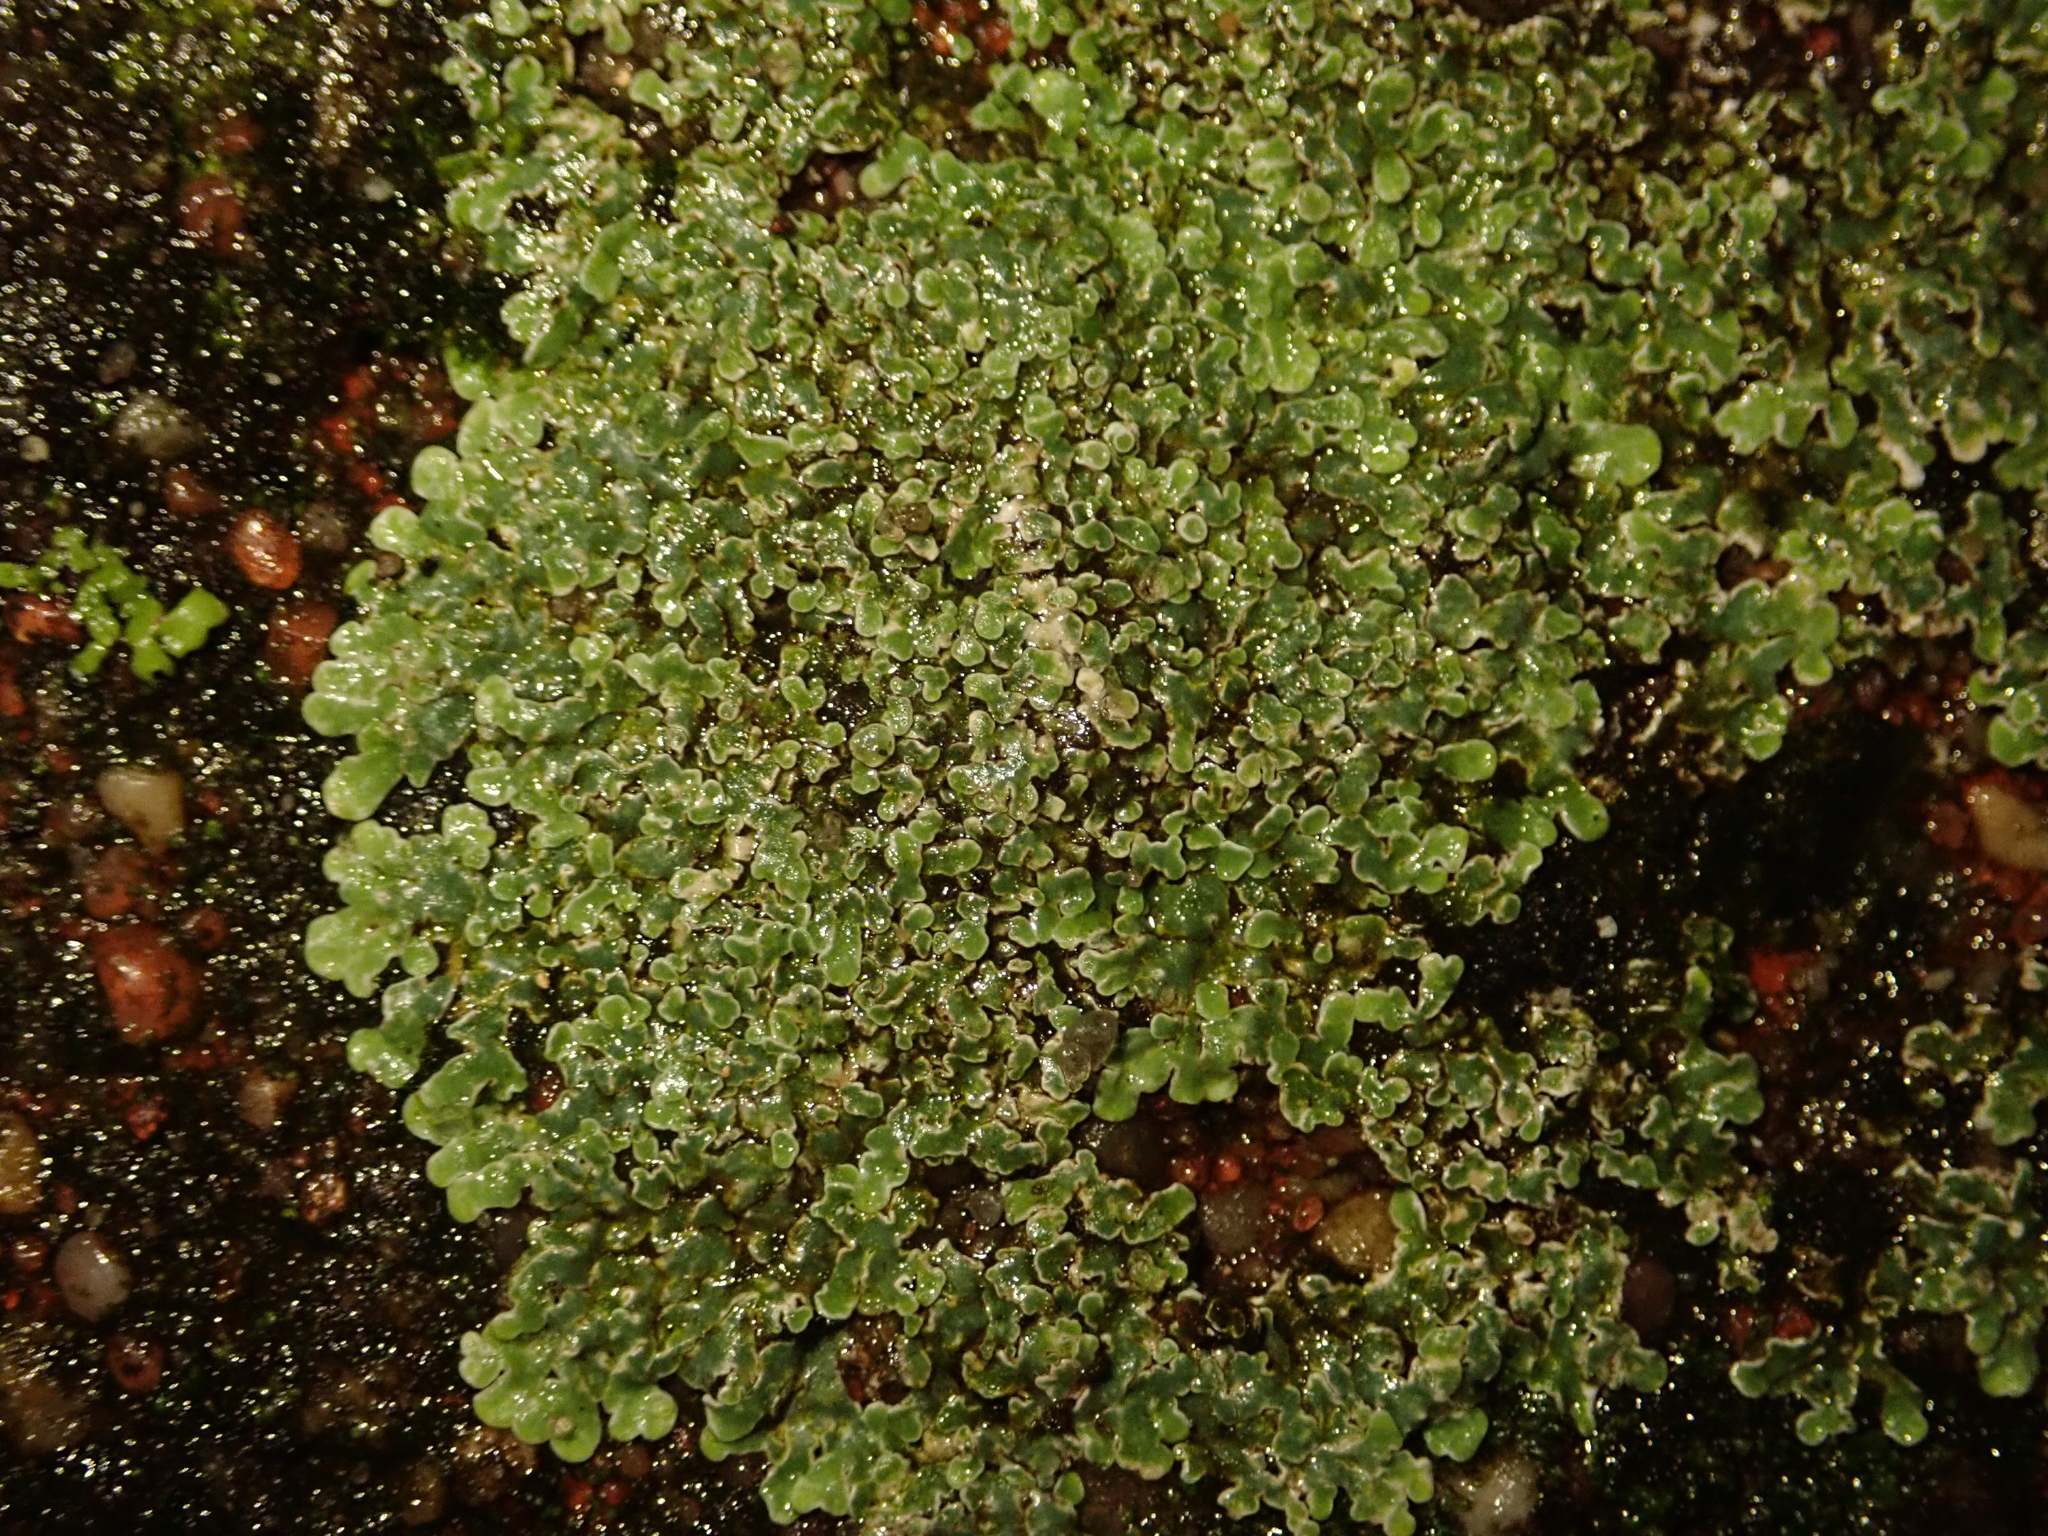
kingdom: Fungi
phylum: Ascomycota
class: Lecanoromycetes
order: Lecanorales
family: Lecanoraceae
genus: Protoparmeliopsis
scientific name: Protoparmeliopsis muralis
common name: Stonewall rim lichen
